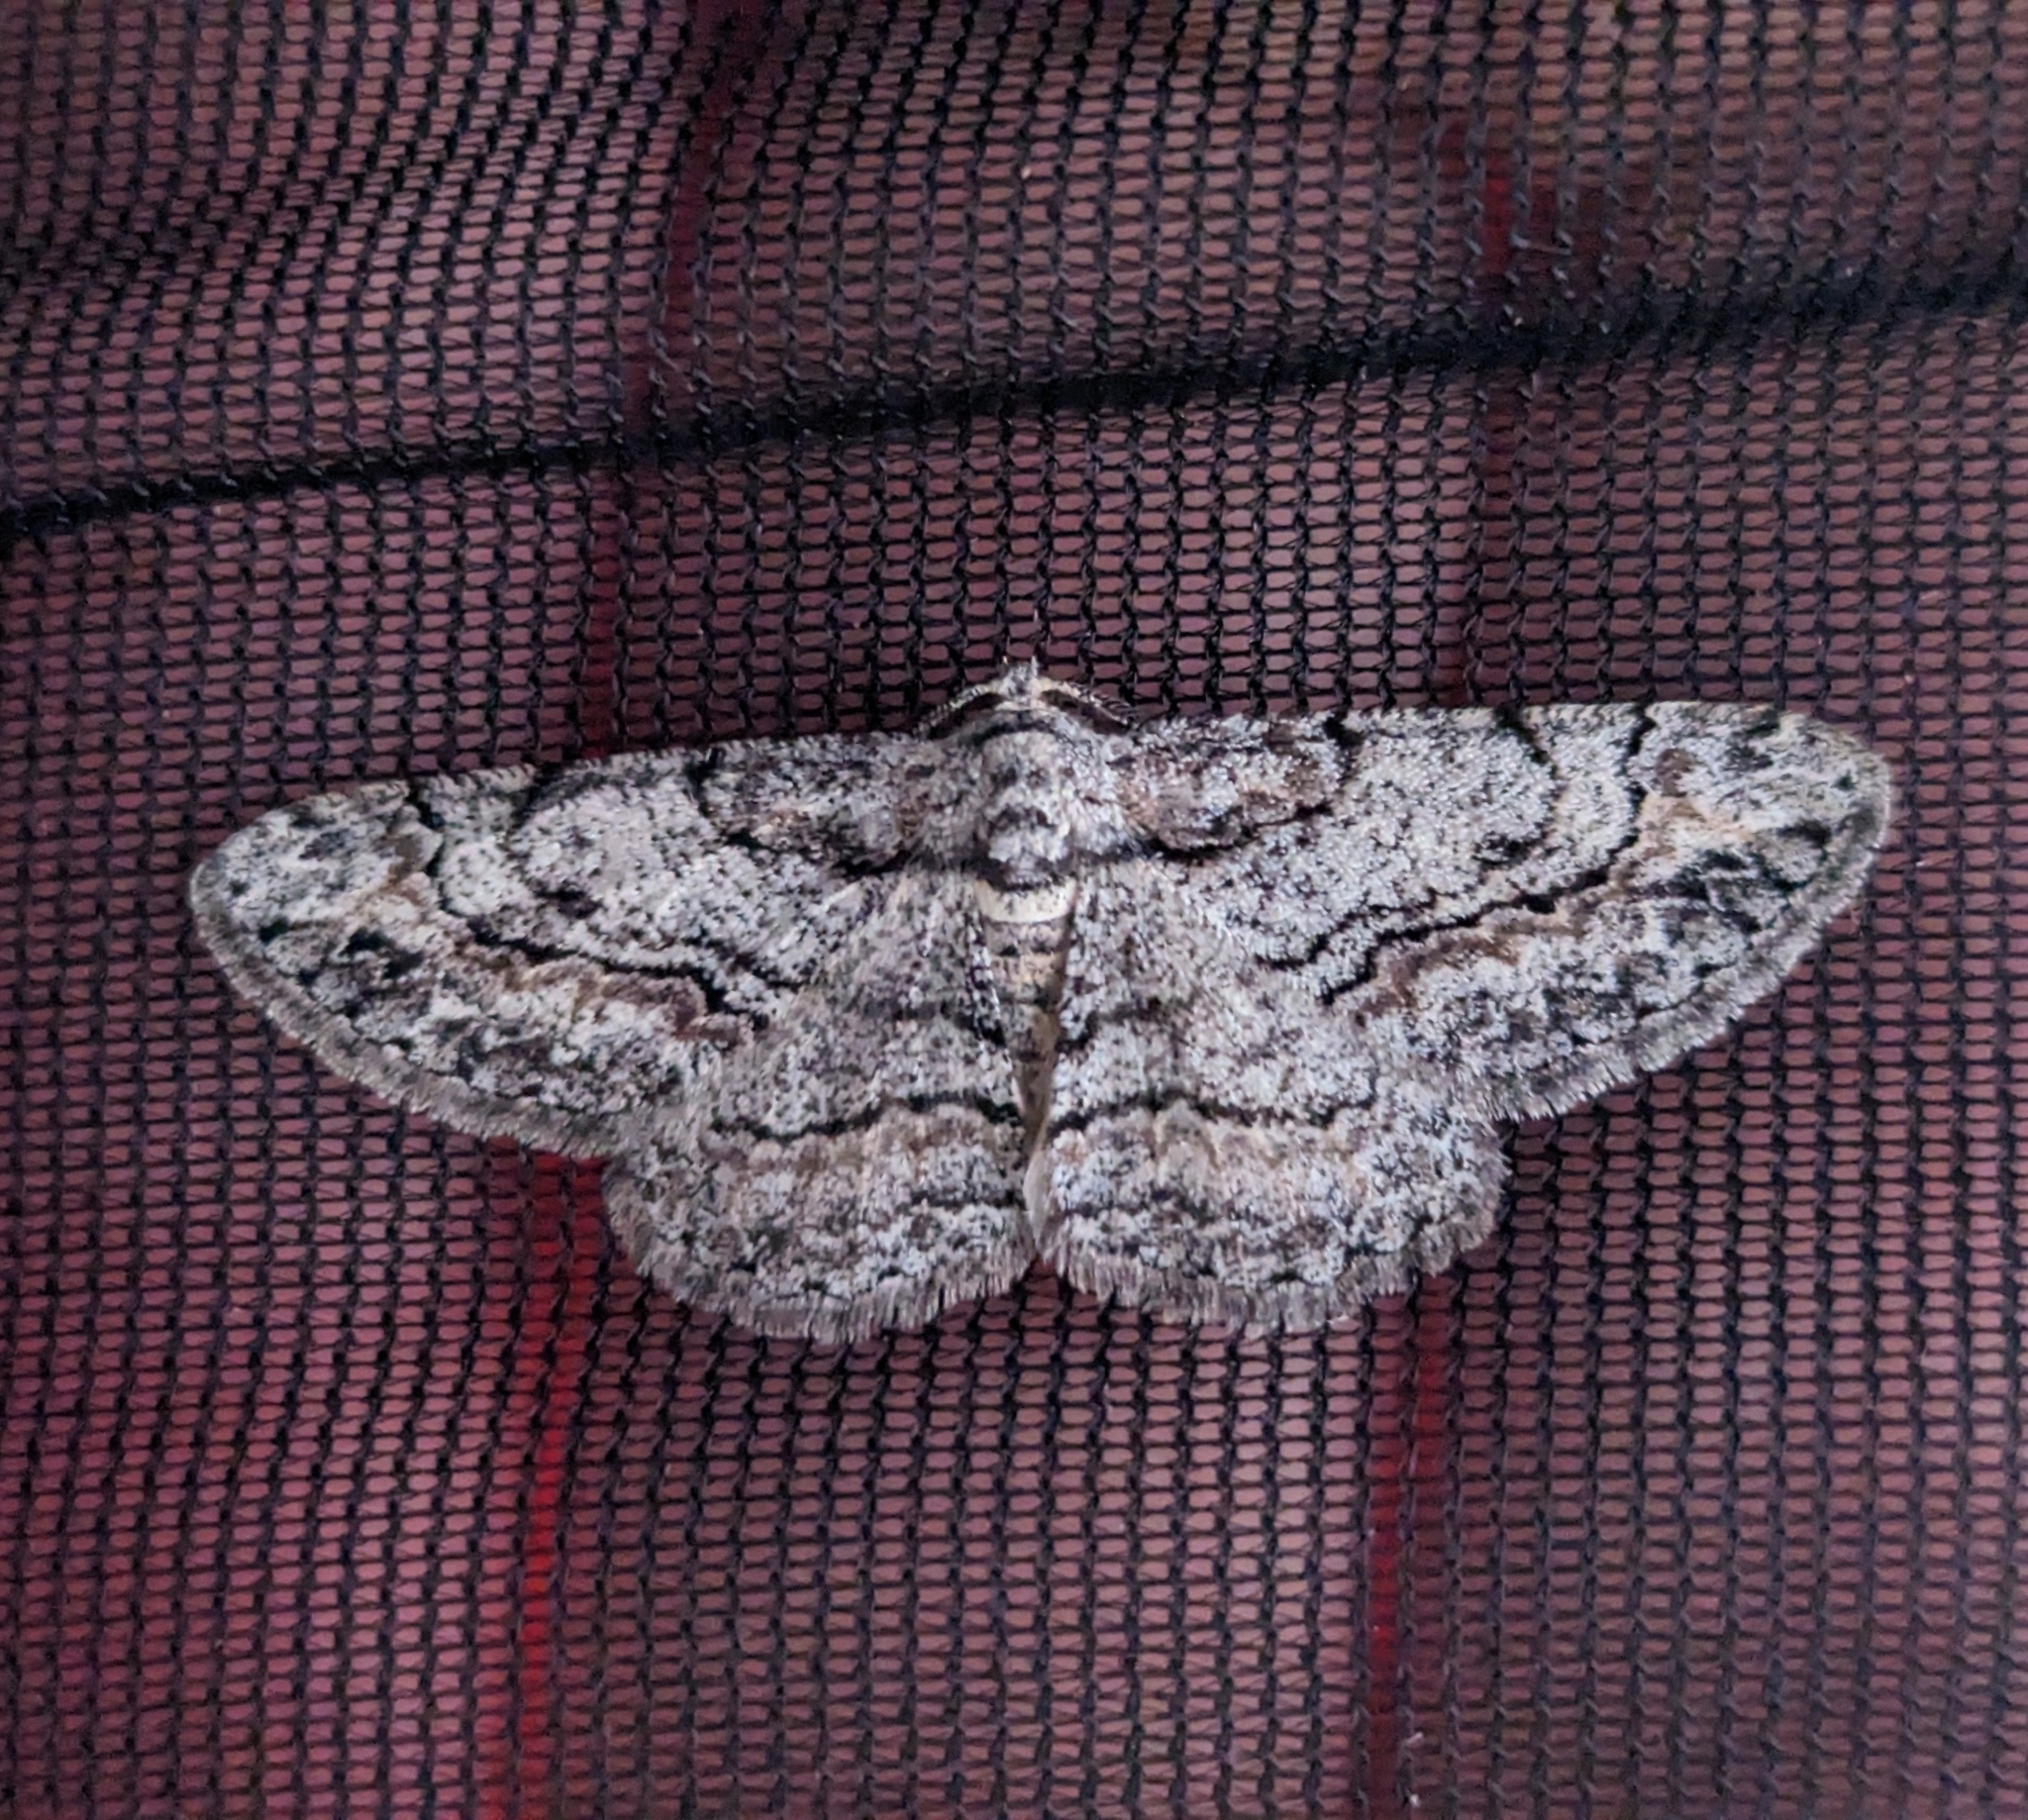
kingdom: Animalia
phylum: Arthropoda
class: Insecta
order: Lepidoptera
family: Geometridae
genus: Anavitrinella
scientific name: Anavitrinella pampinaria
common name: Common gray
